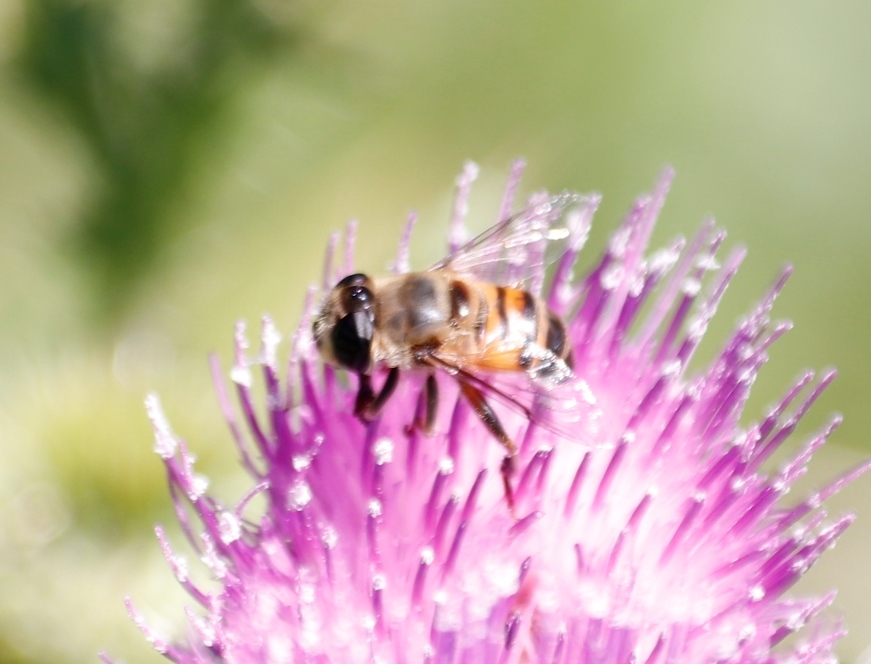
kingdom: Animalia
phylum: Arthropoda
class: Insecta
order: Diptera
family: Syrphidae
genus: Phytomia
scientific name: Phytomia incisa
